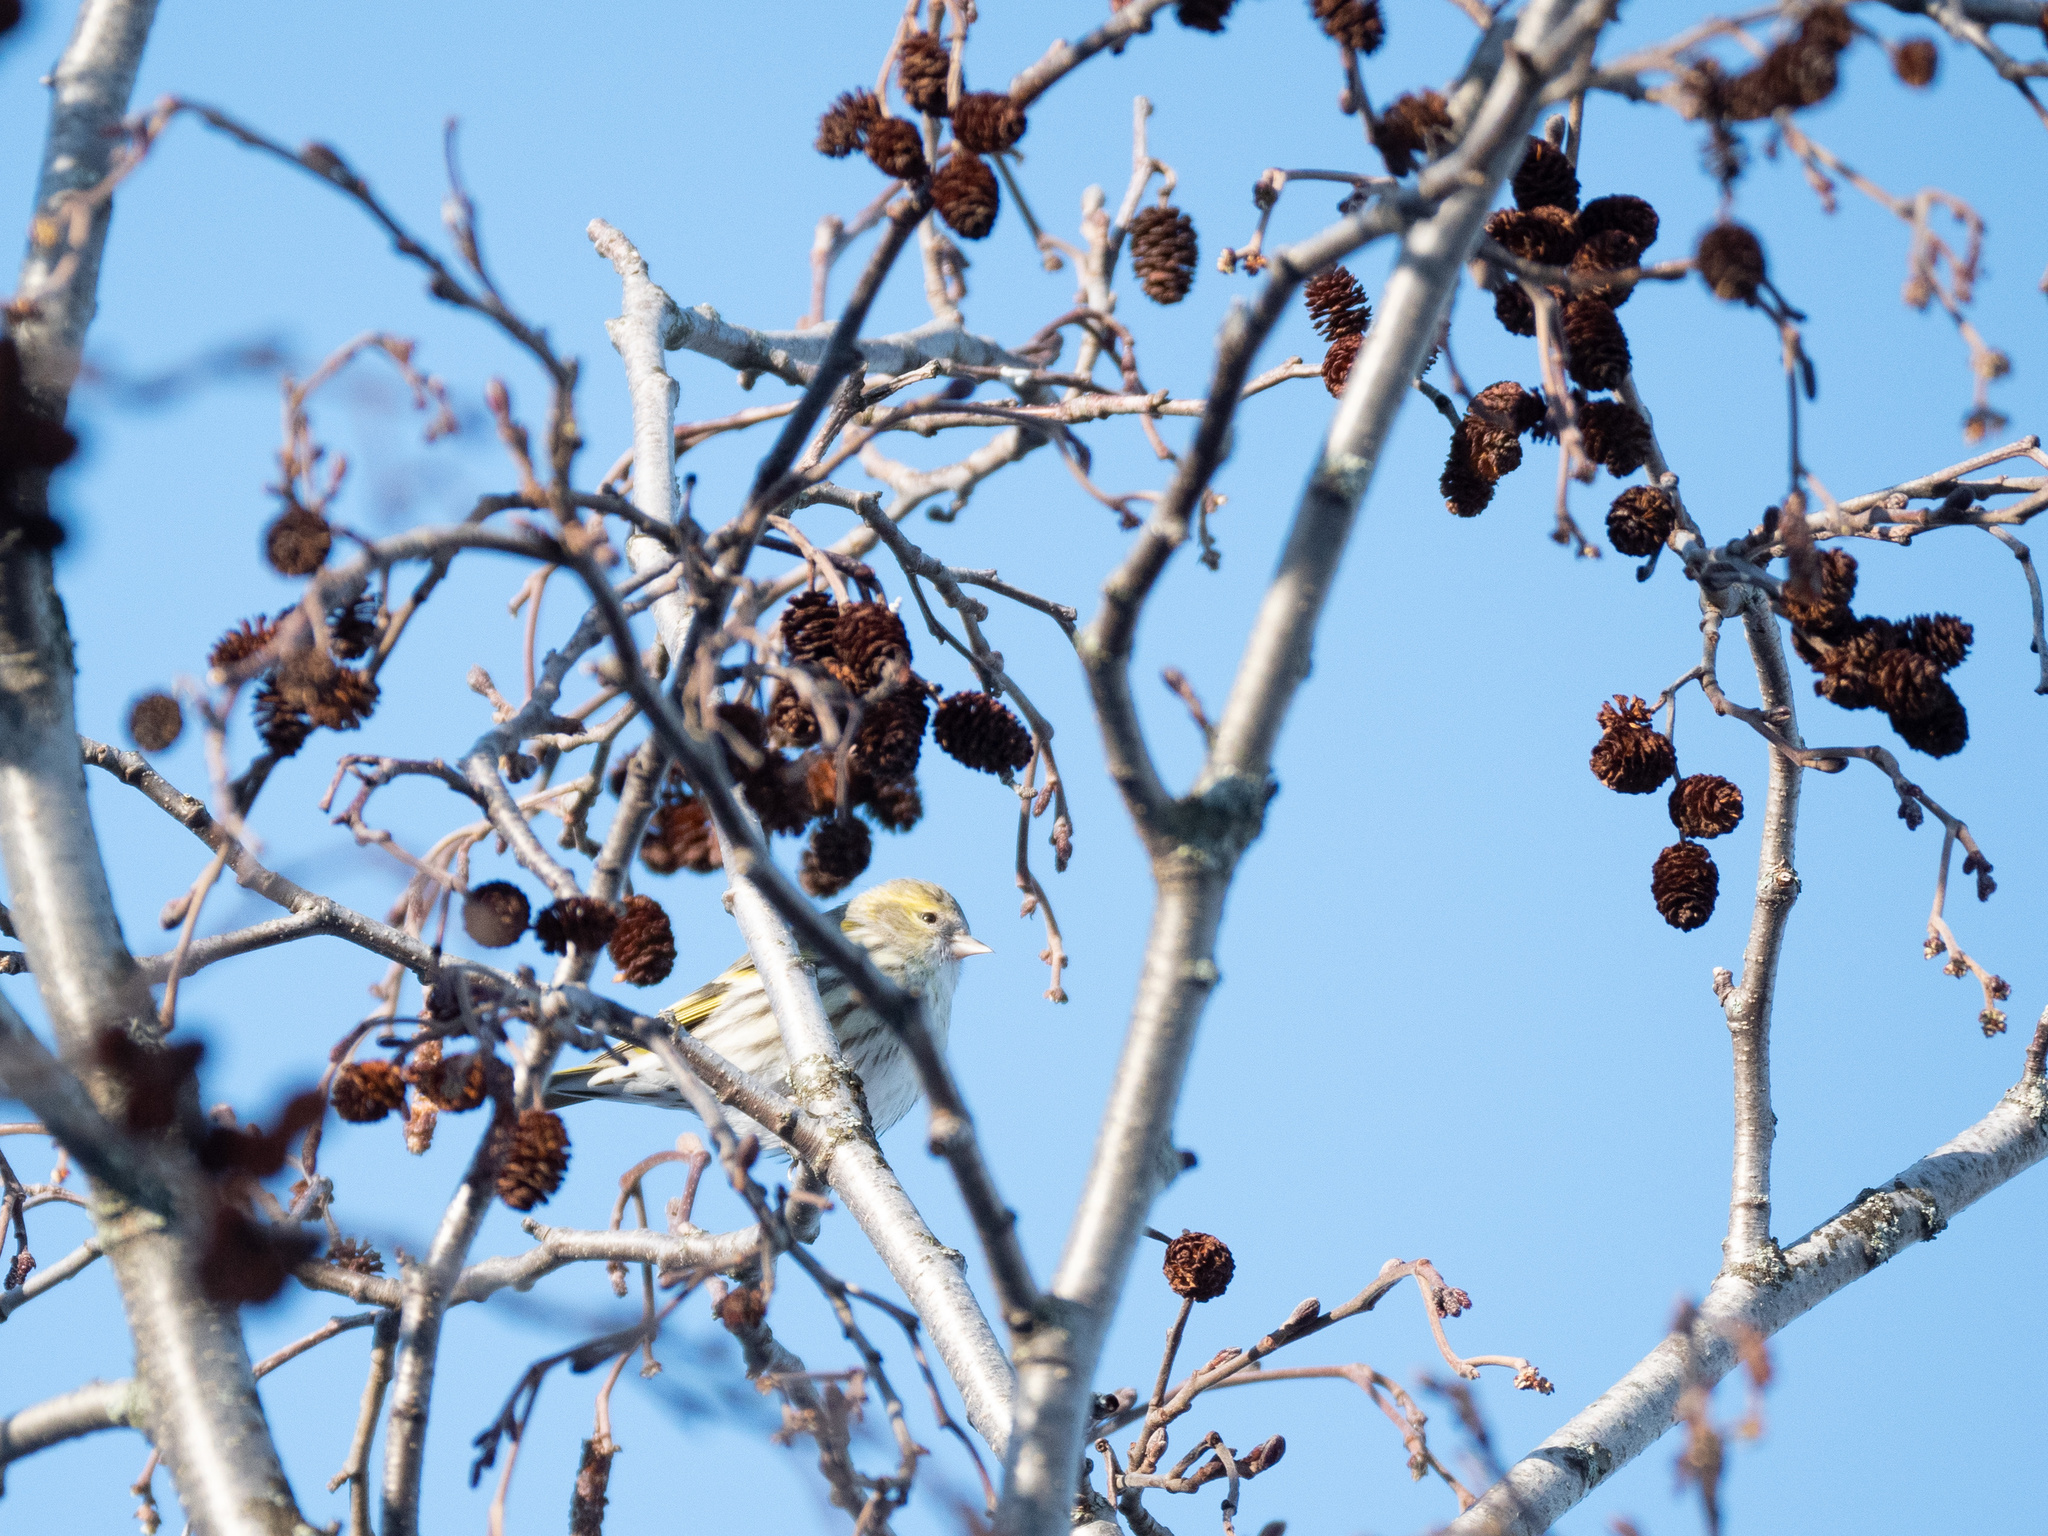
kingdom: Animalia
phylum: Chordata
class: Aves
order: Passeriformes
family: Fringillidae
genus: Spinus
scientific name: Spinus spinus
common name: Eurasian siskin
